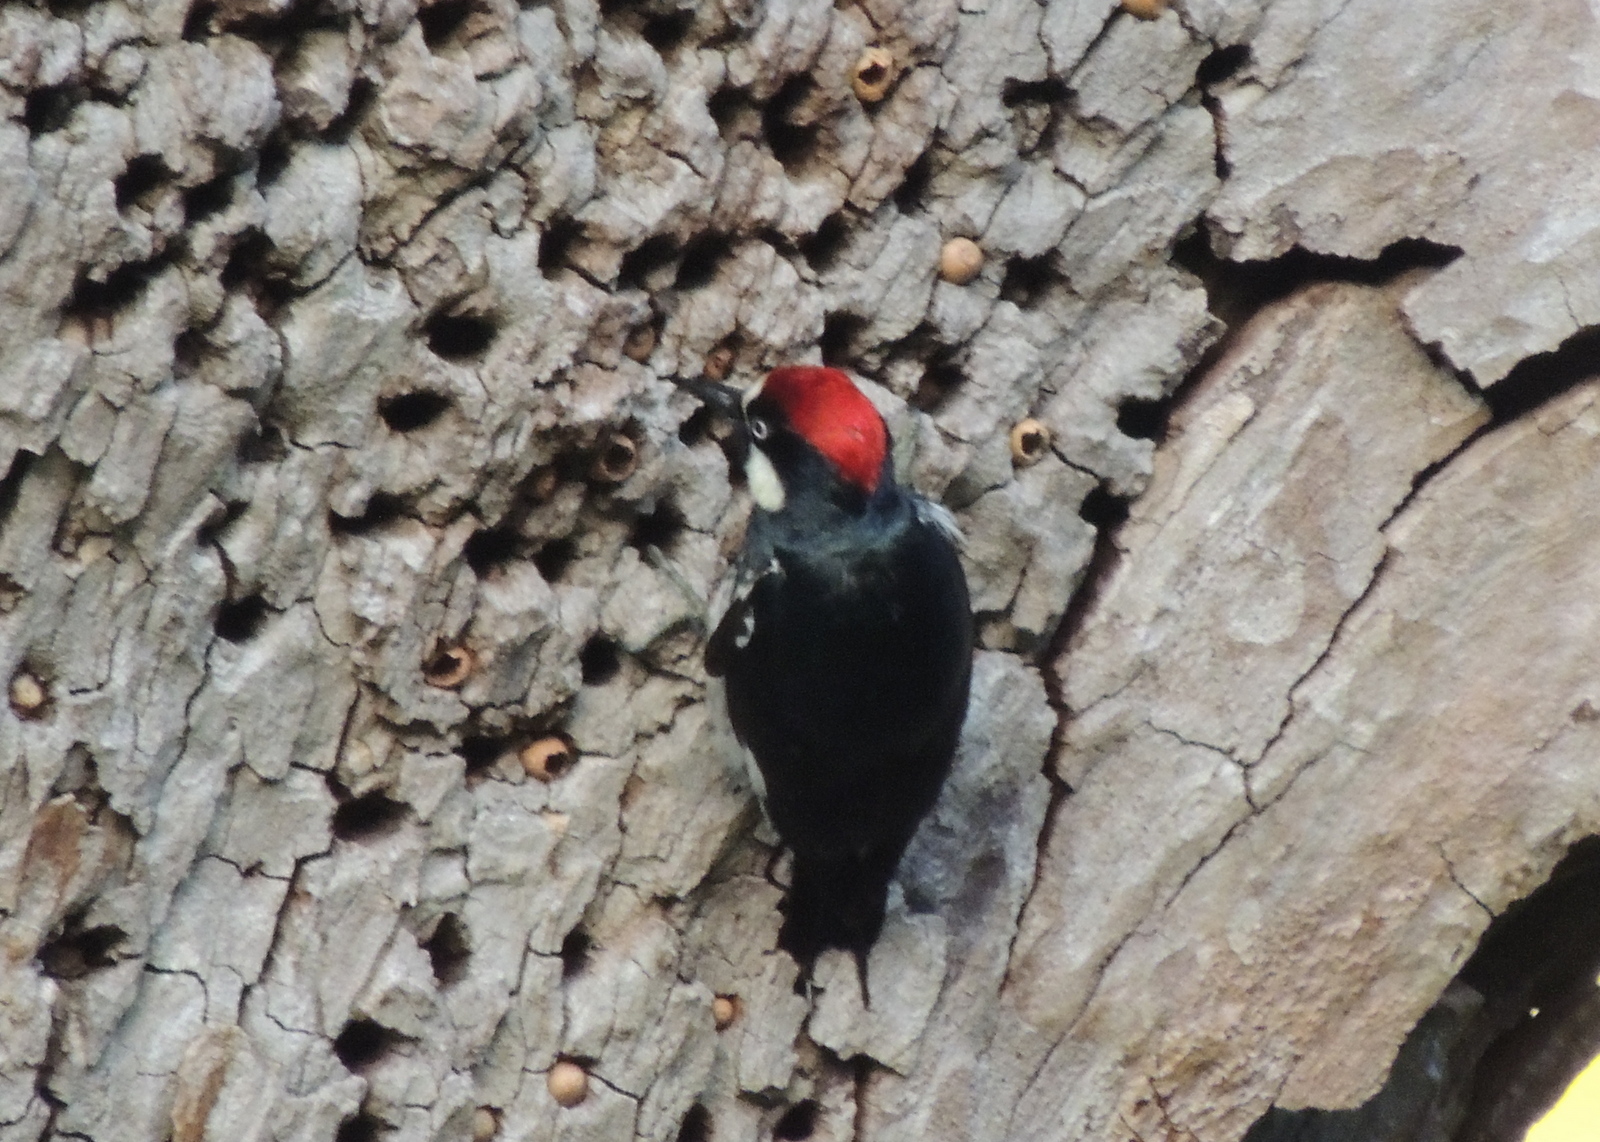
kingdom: Animalia
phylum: Chordata
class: Aves
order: Piciformes
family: Picidae
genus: Melanerpes
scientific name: Melanerpes formicivorus
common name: Acorn woodpecker
